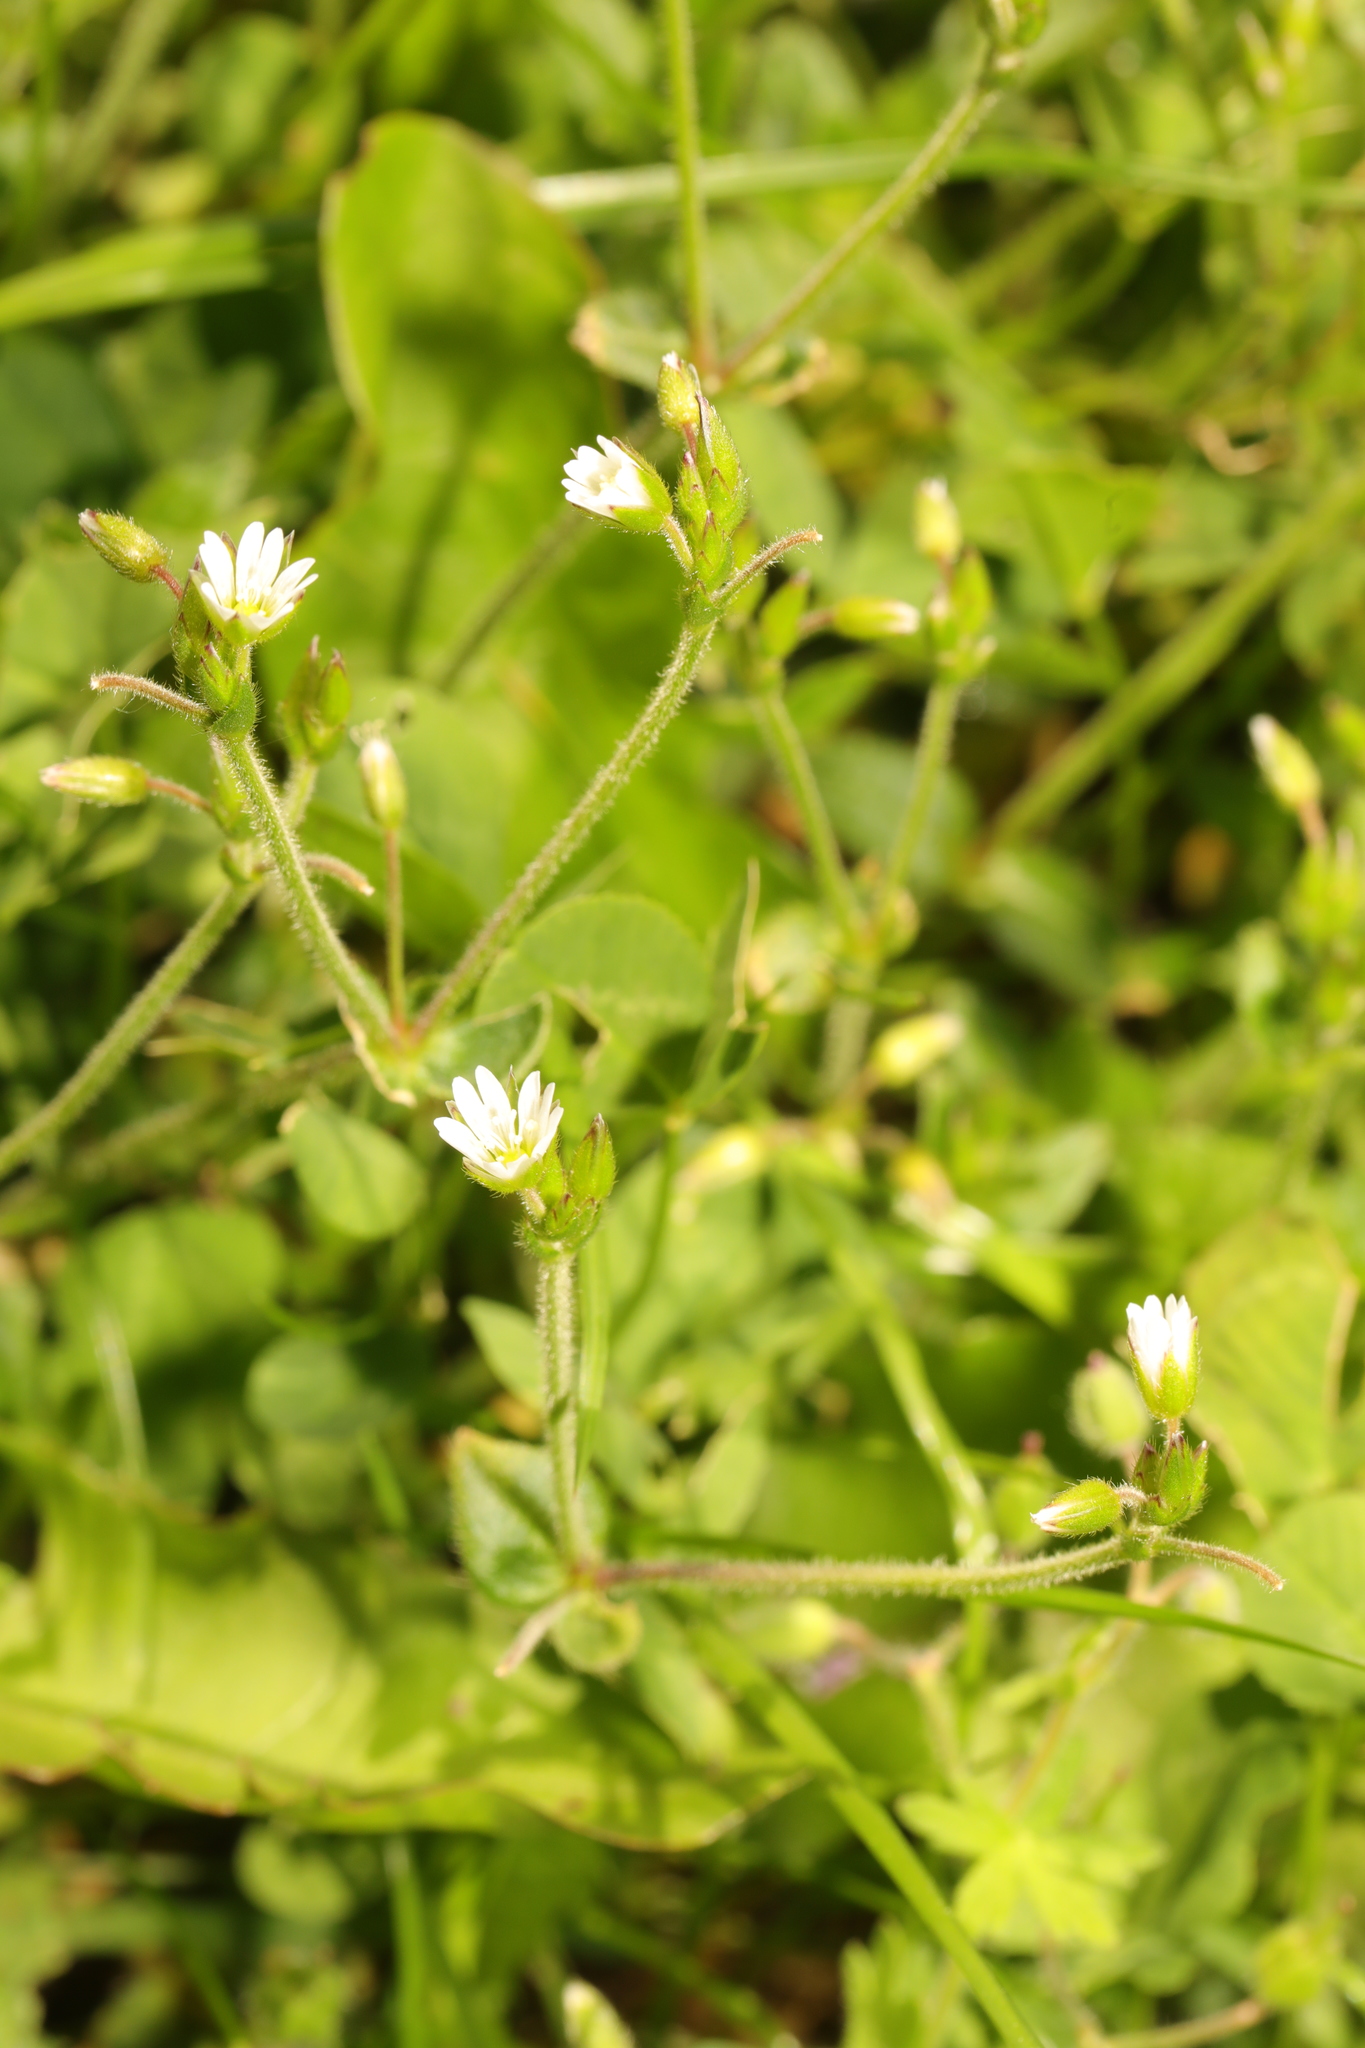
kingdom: Plantae
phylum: Tracheophyta
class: Magnoliopsida
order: Caryophyllales
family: Caryophyllaceae
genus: Cerastium
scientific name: Cerastium fontanum
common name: Common mouse-ear
